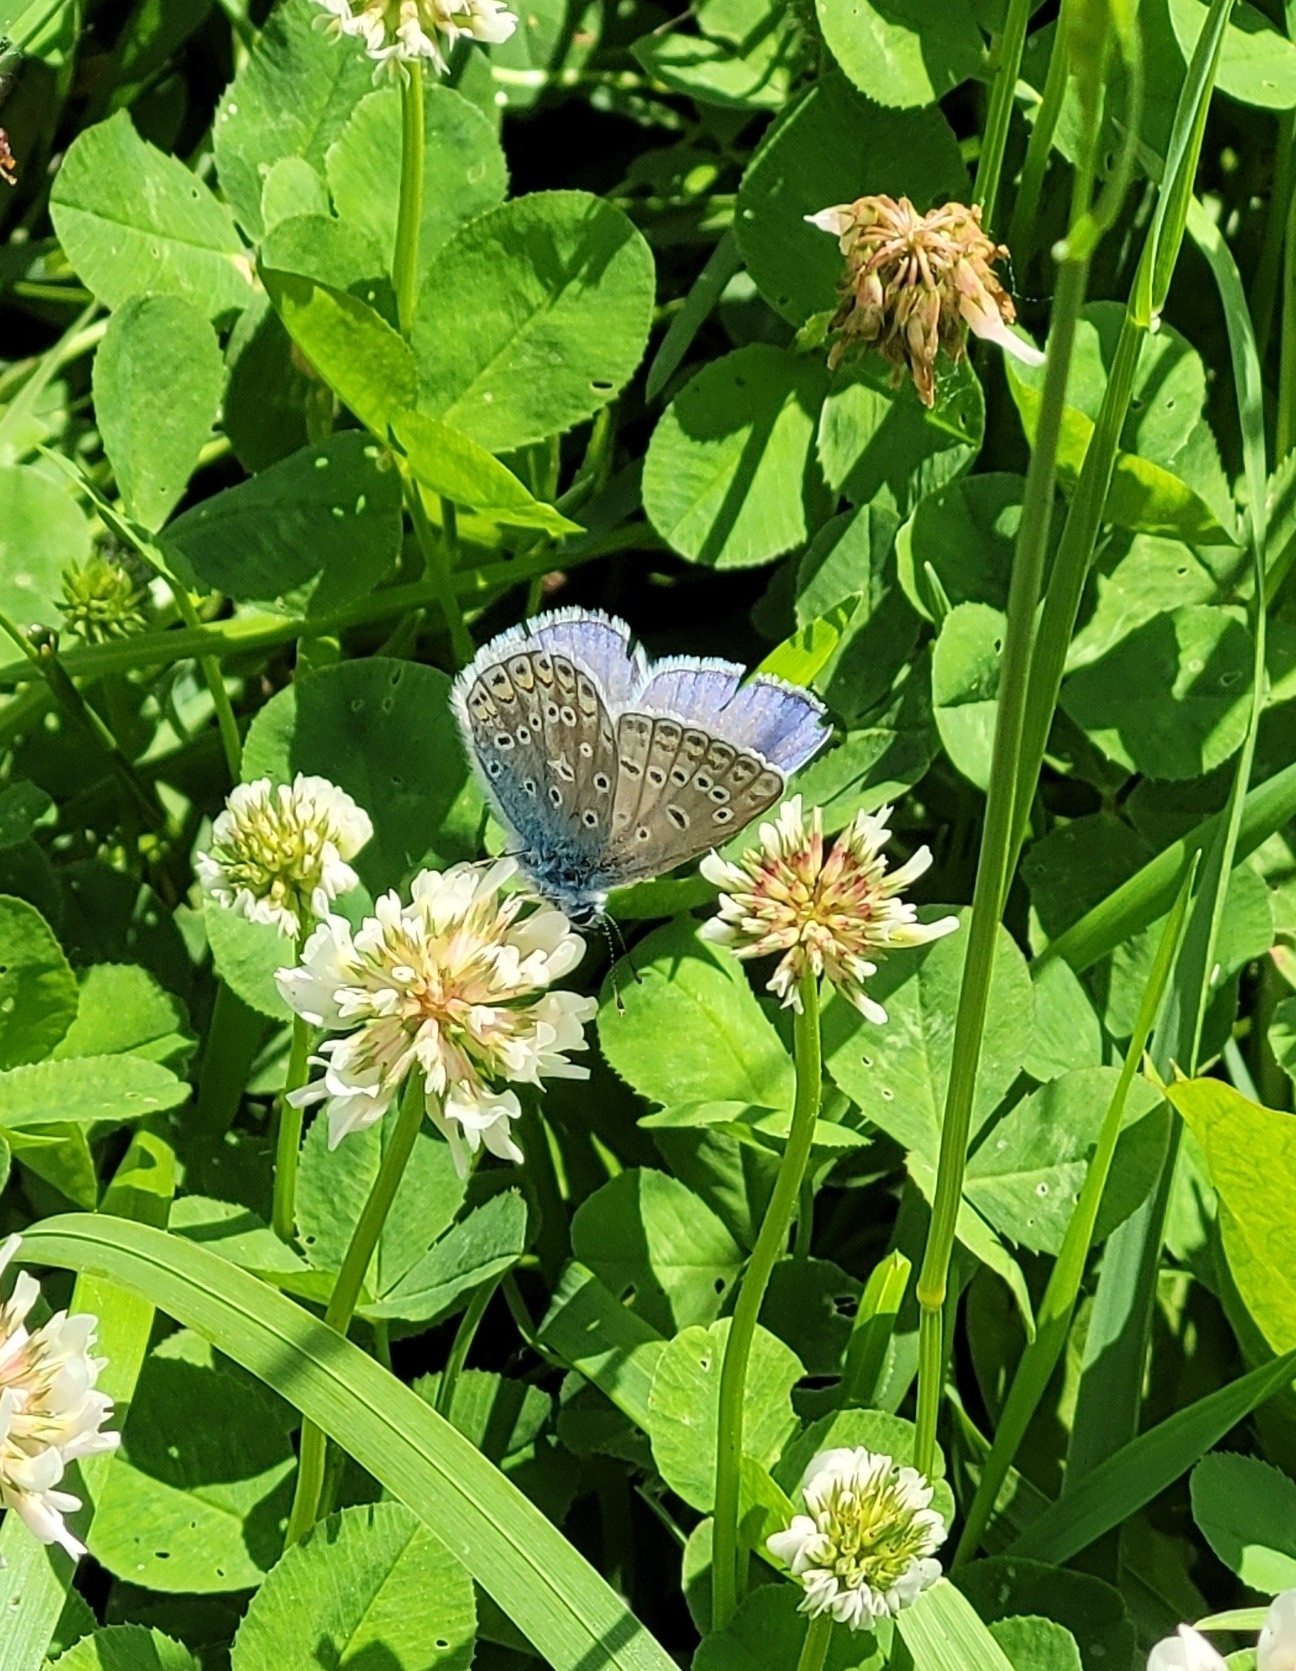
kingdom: Animalia
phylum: Arthropoda
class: Insecta
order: Lepidoptera
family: Lycaenidae
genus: Polyommatus
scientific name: Polyommatus icarus
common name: Common blue
